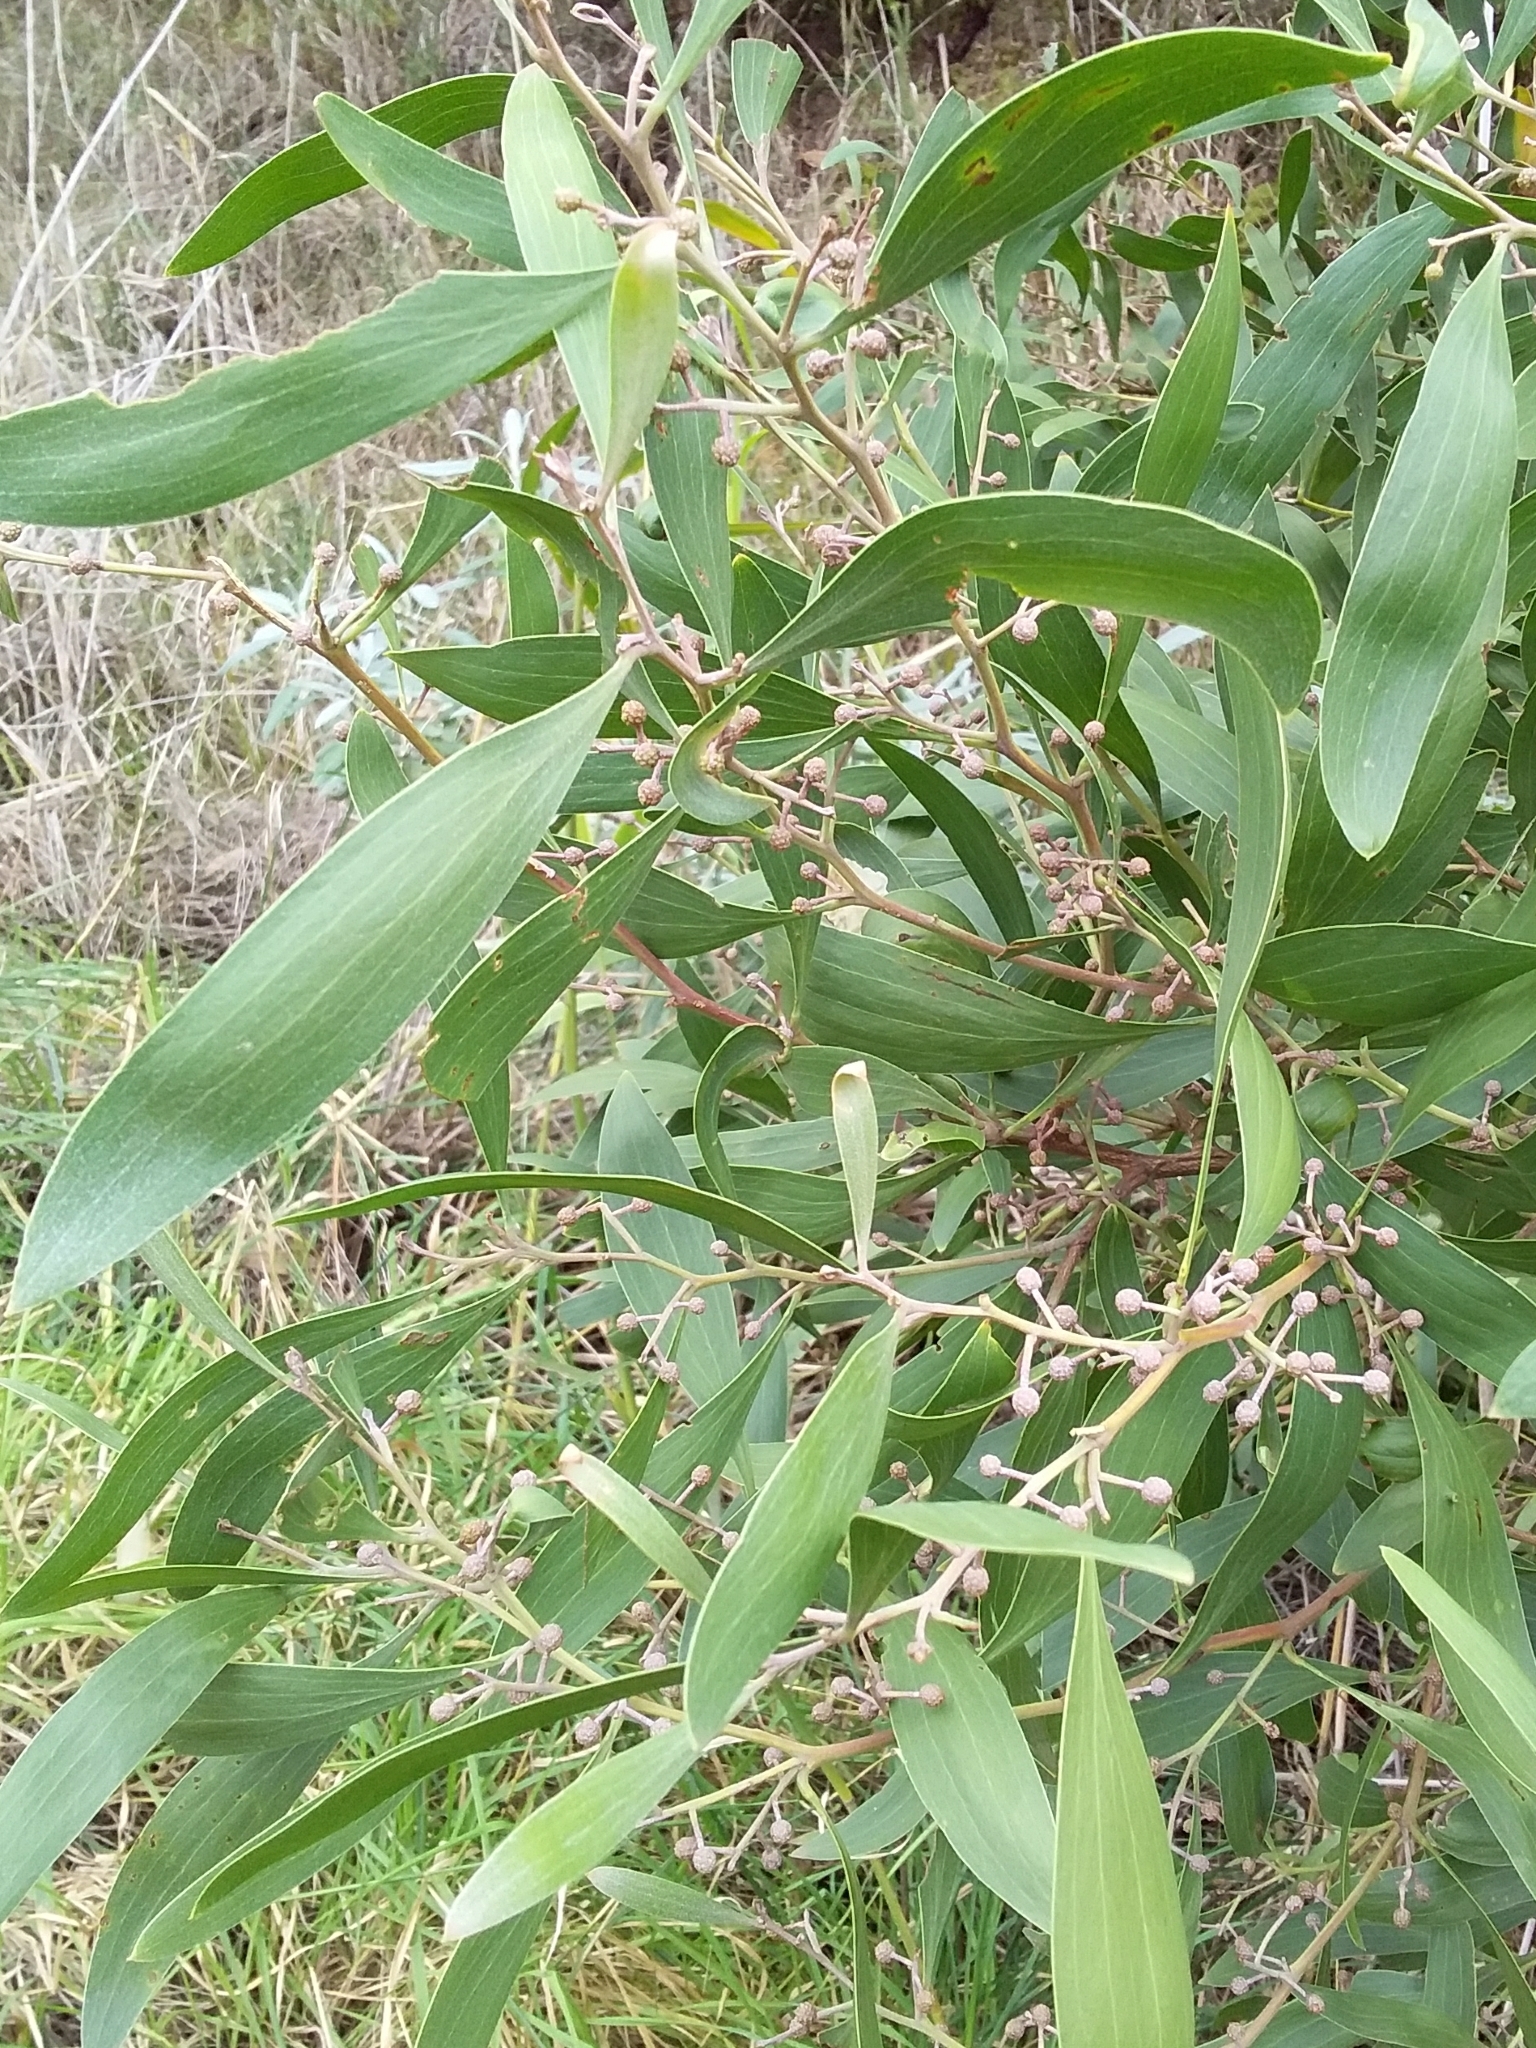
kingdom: Plantae
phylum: Tracheophyta
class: Magnoliopsida
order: Fabales
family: Fabaceae
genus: Acacia
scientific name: Acacia melanoxylon
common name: Blackwood
